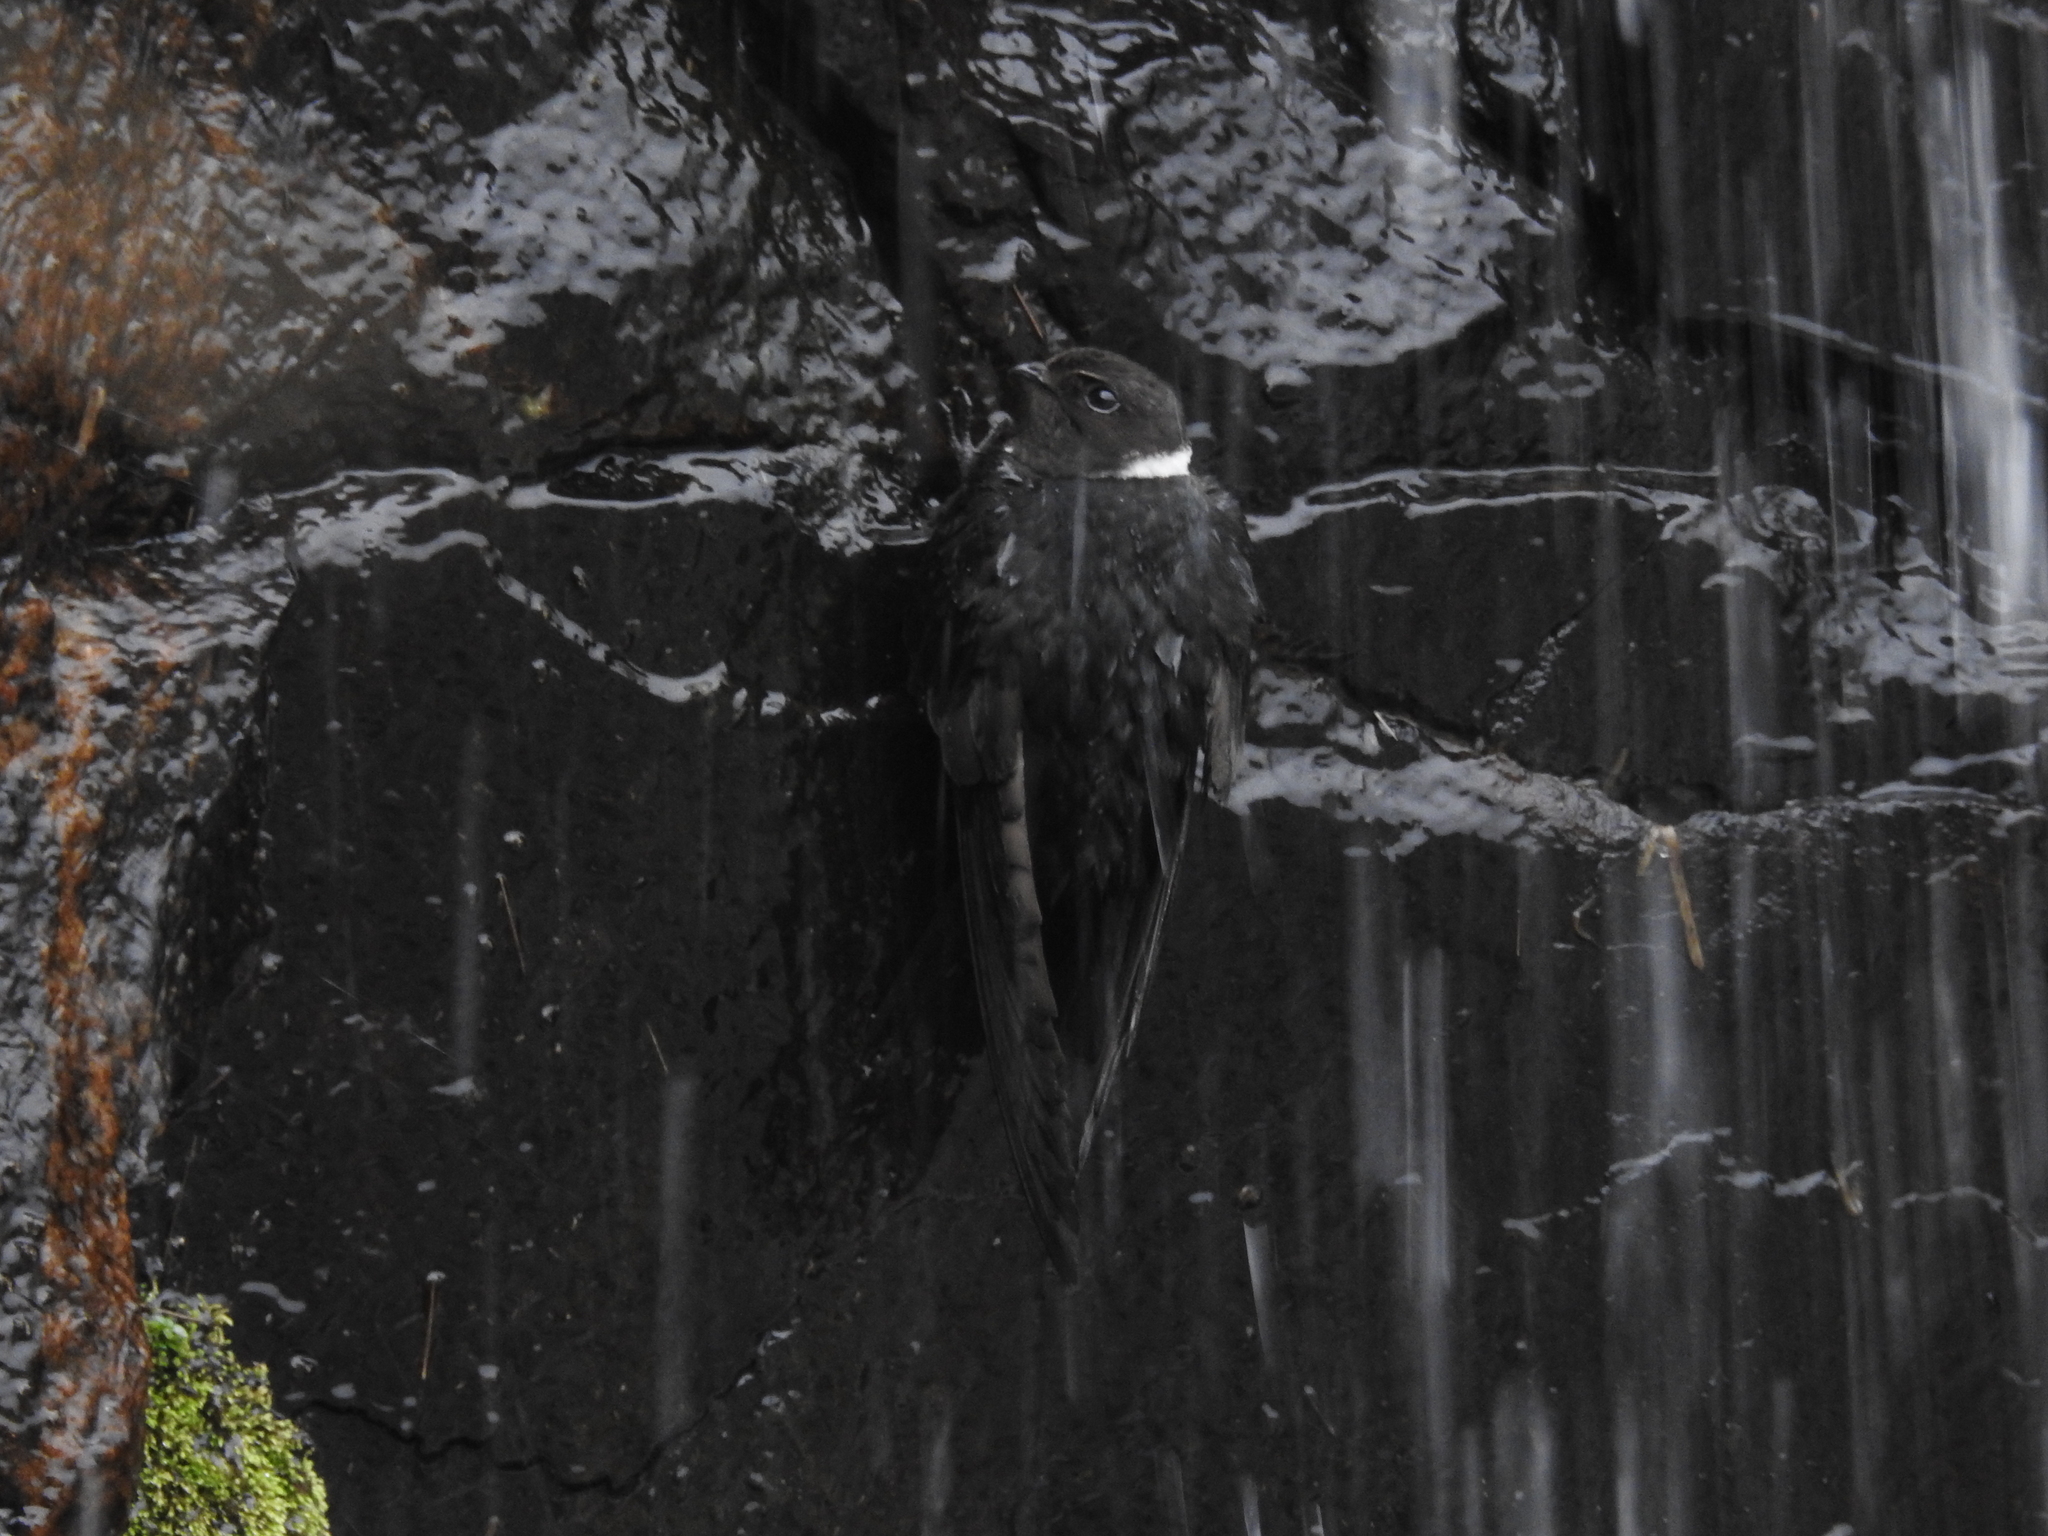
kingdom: Animalia
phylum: Chordata
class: Aves
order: Apodiformes
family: Apodidae
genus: Streptoprocne
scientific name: Streptoprocne zonaris
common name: White-collared swift
